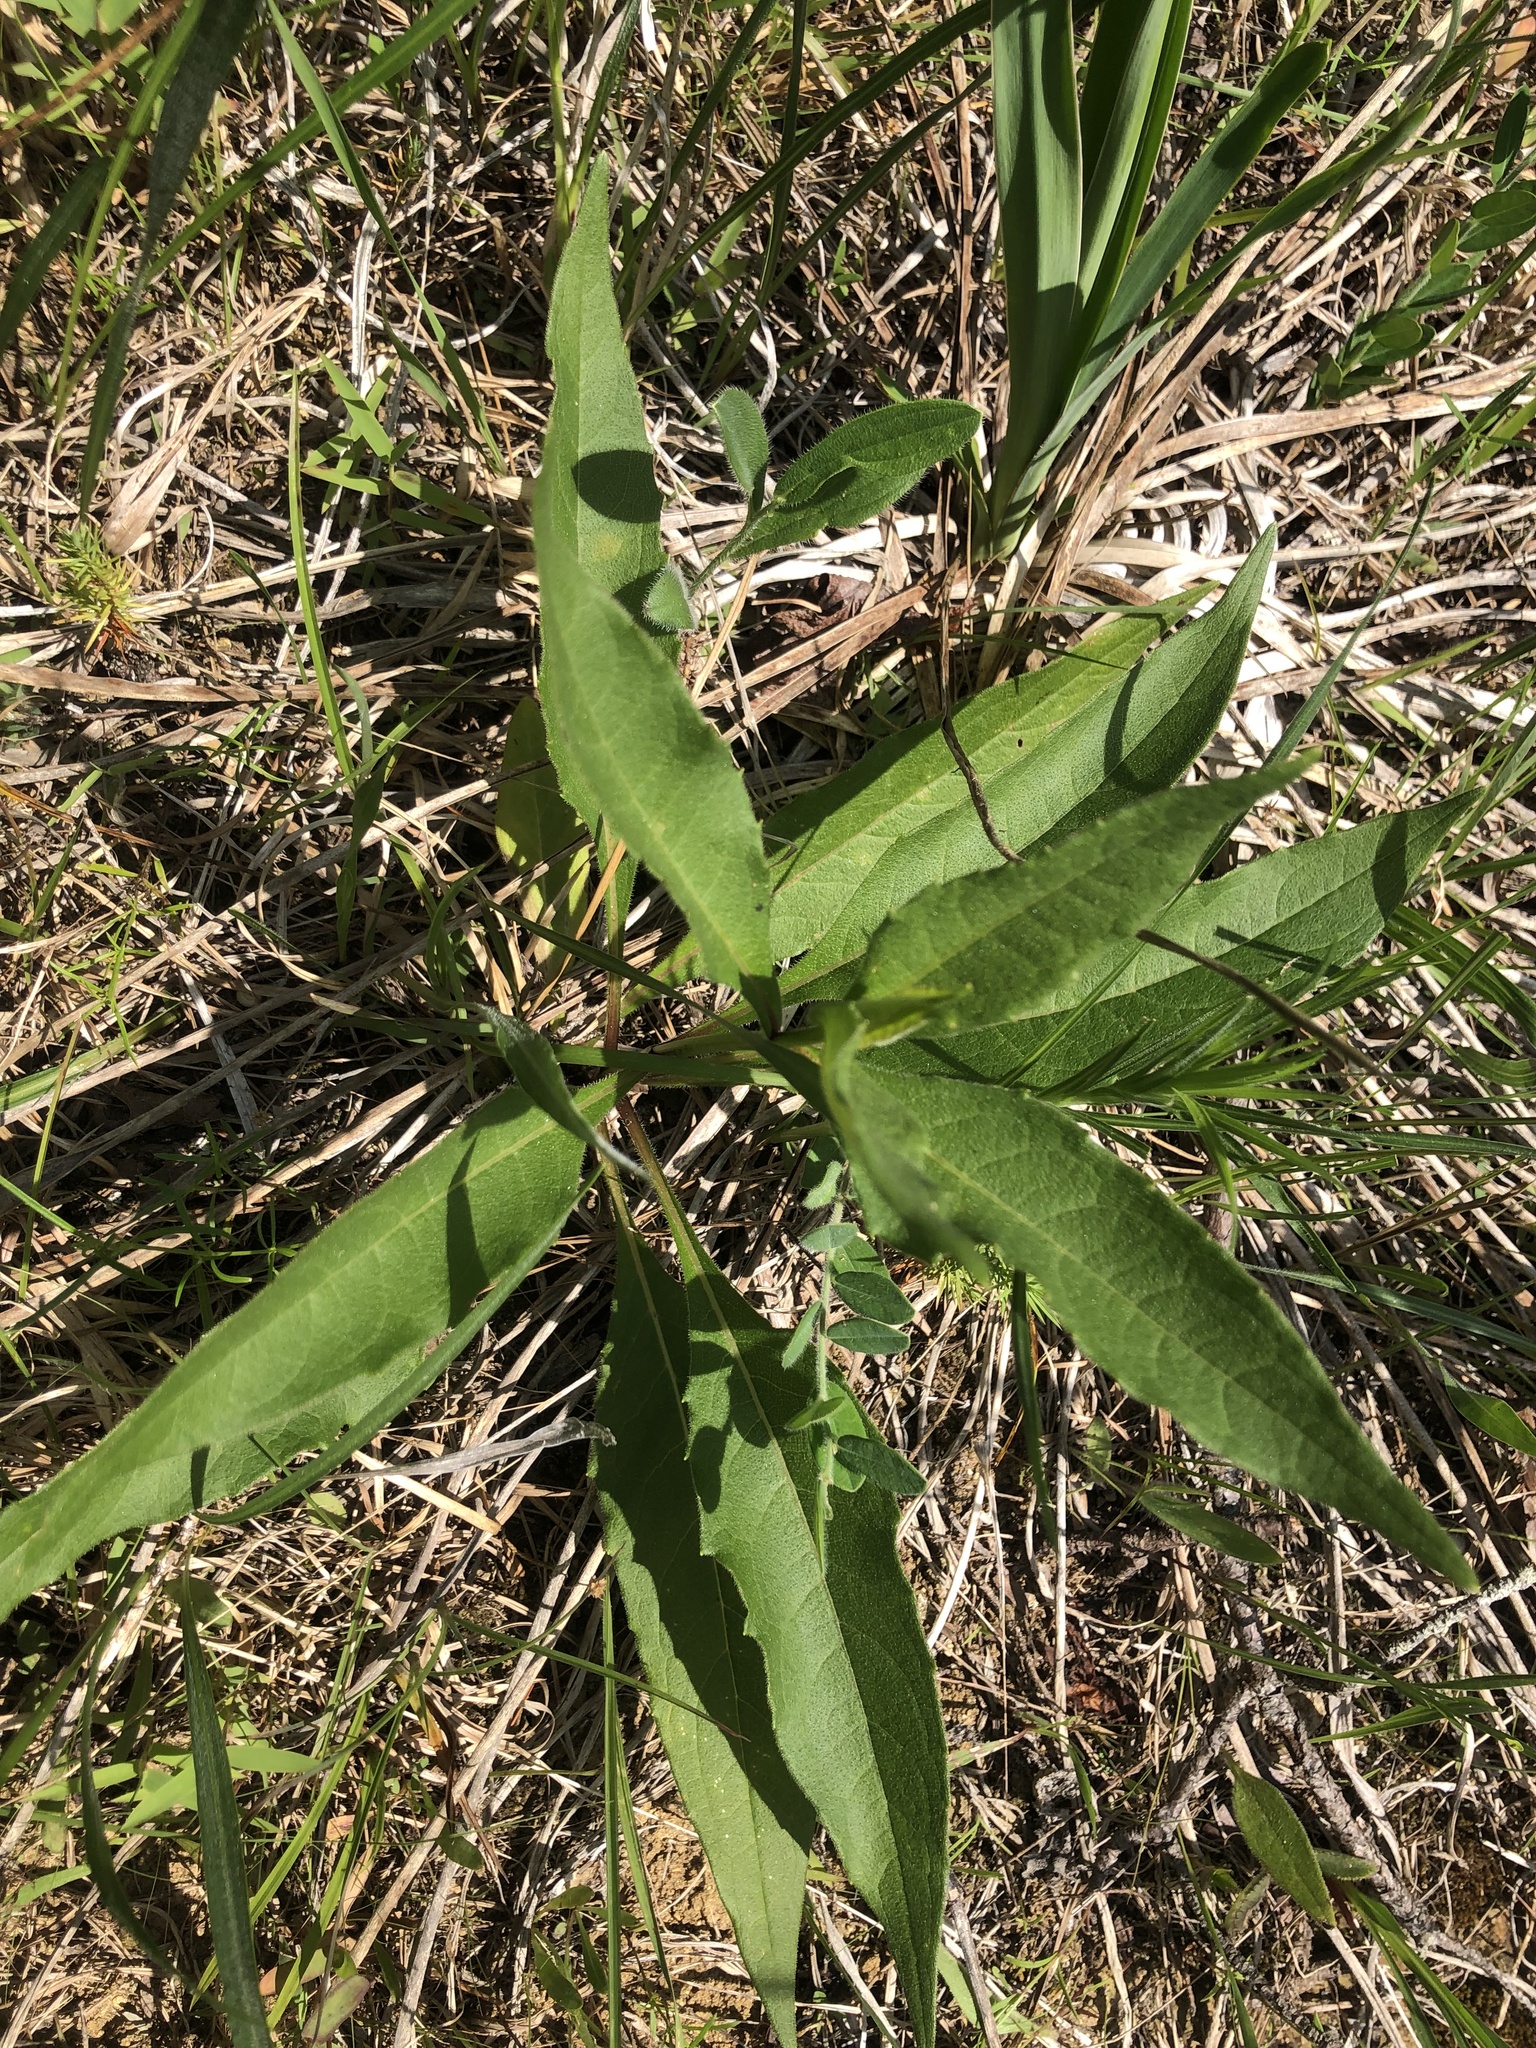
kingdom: Plantae
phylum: Tracheophyta
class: Magnoliopsida
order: Asterales
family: Asteraceae
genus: Silphium
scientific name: Silphium confertifolium
